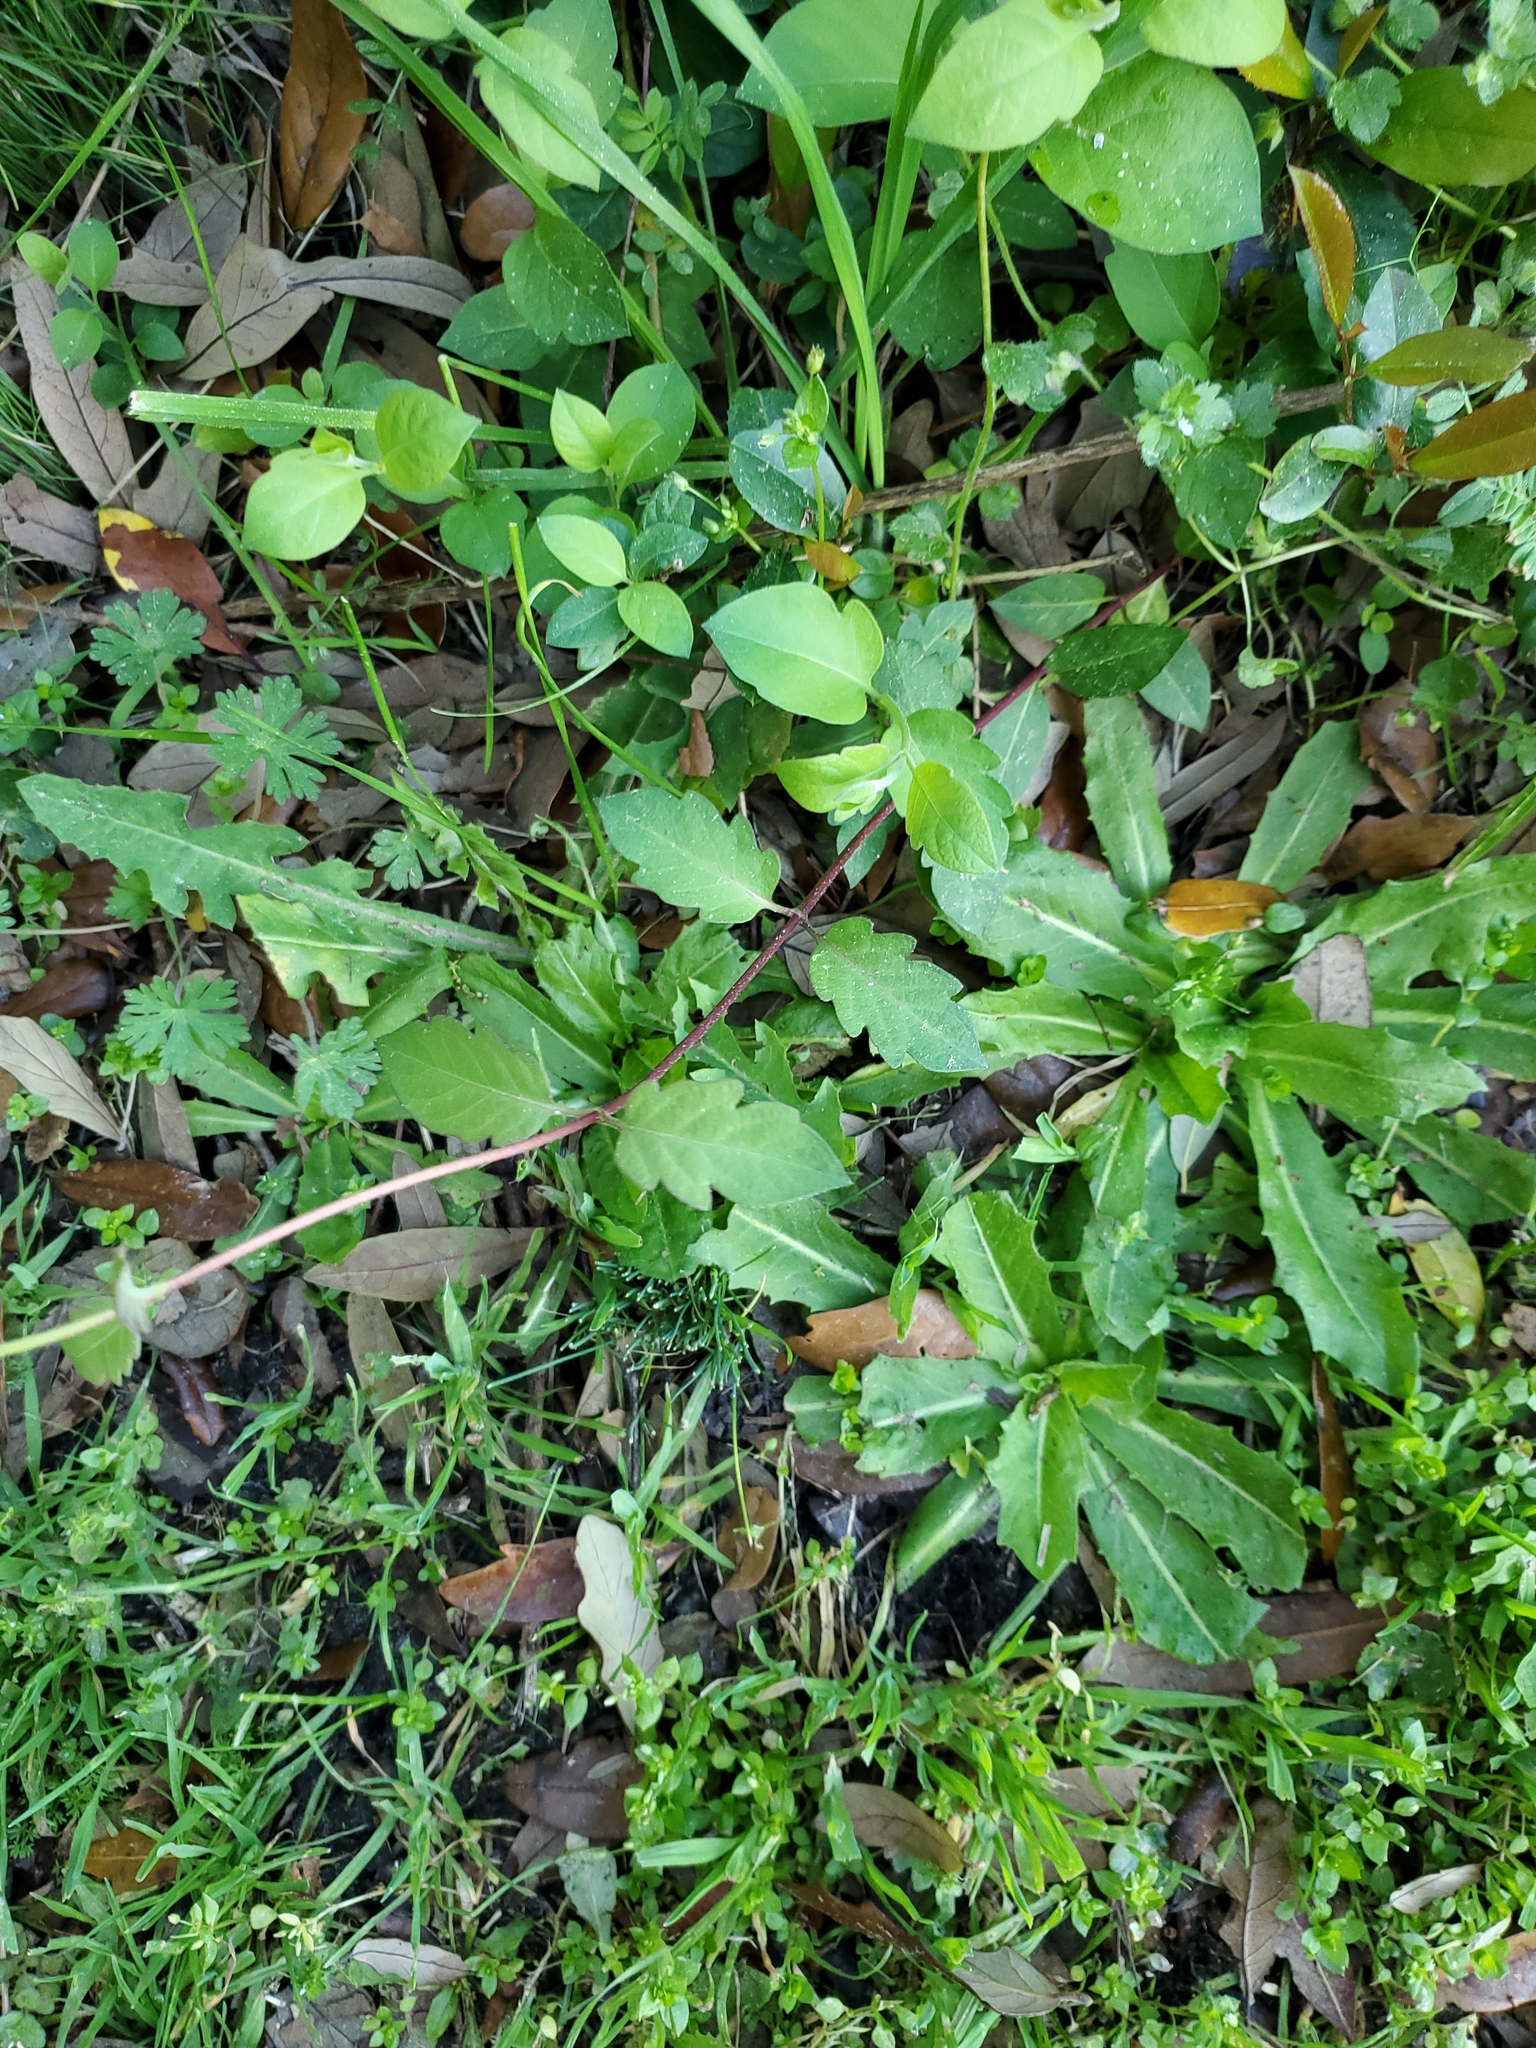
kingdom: Plantae
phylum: Tracheophyta
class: Magnoliopsida
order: Dipsacales
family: Caprifoliaceae
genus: Lonicera
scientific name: Lonicera japonica
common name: Japanese honeysuckle
